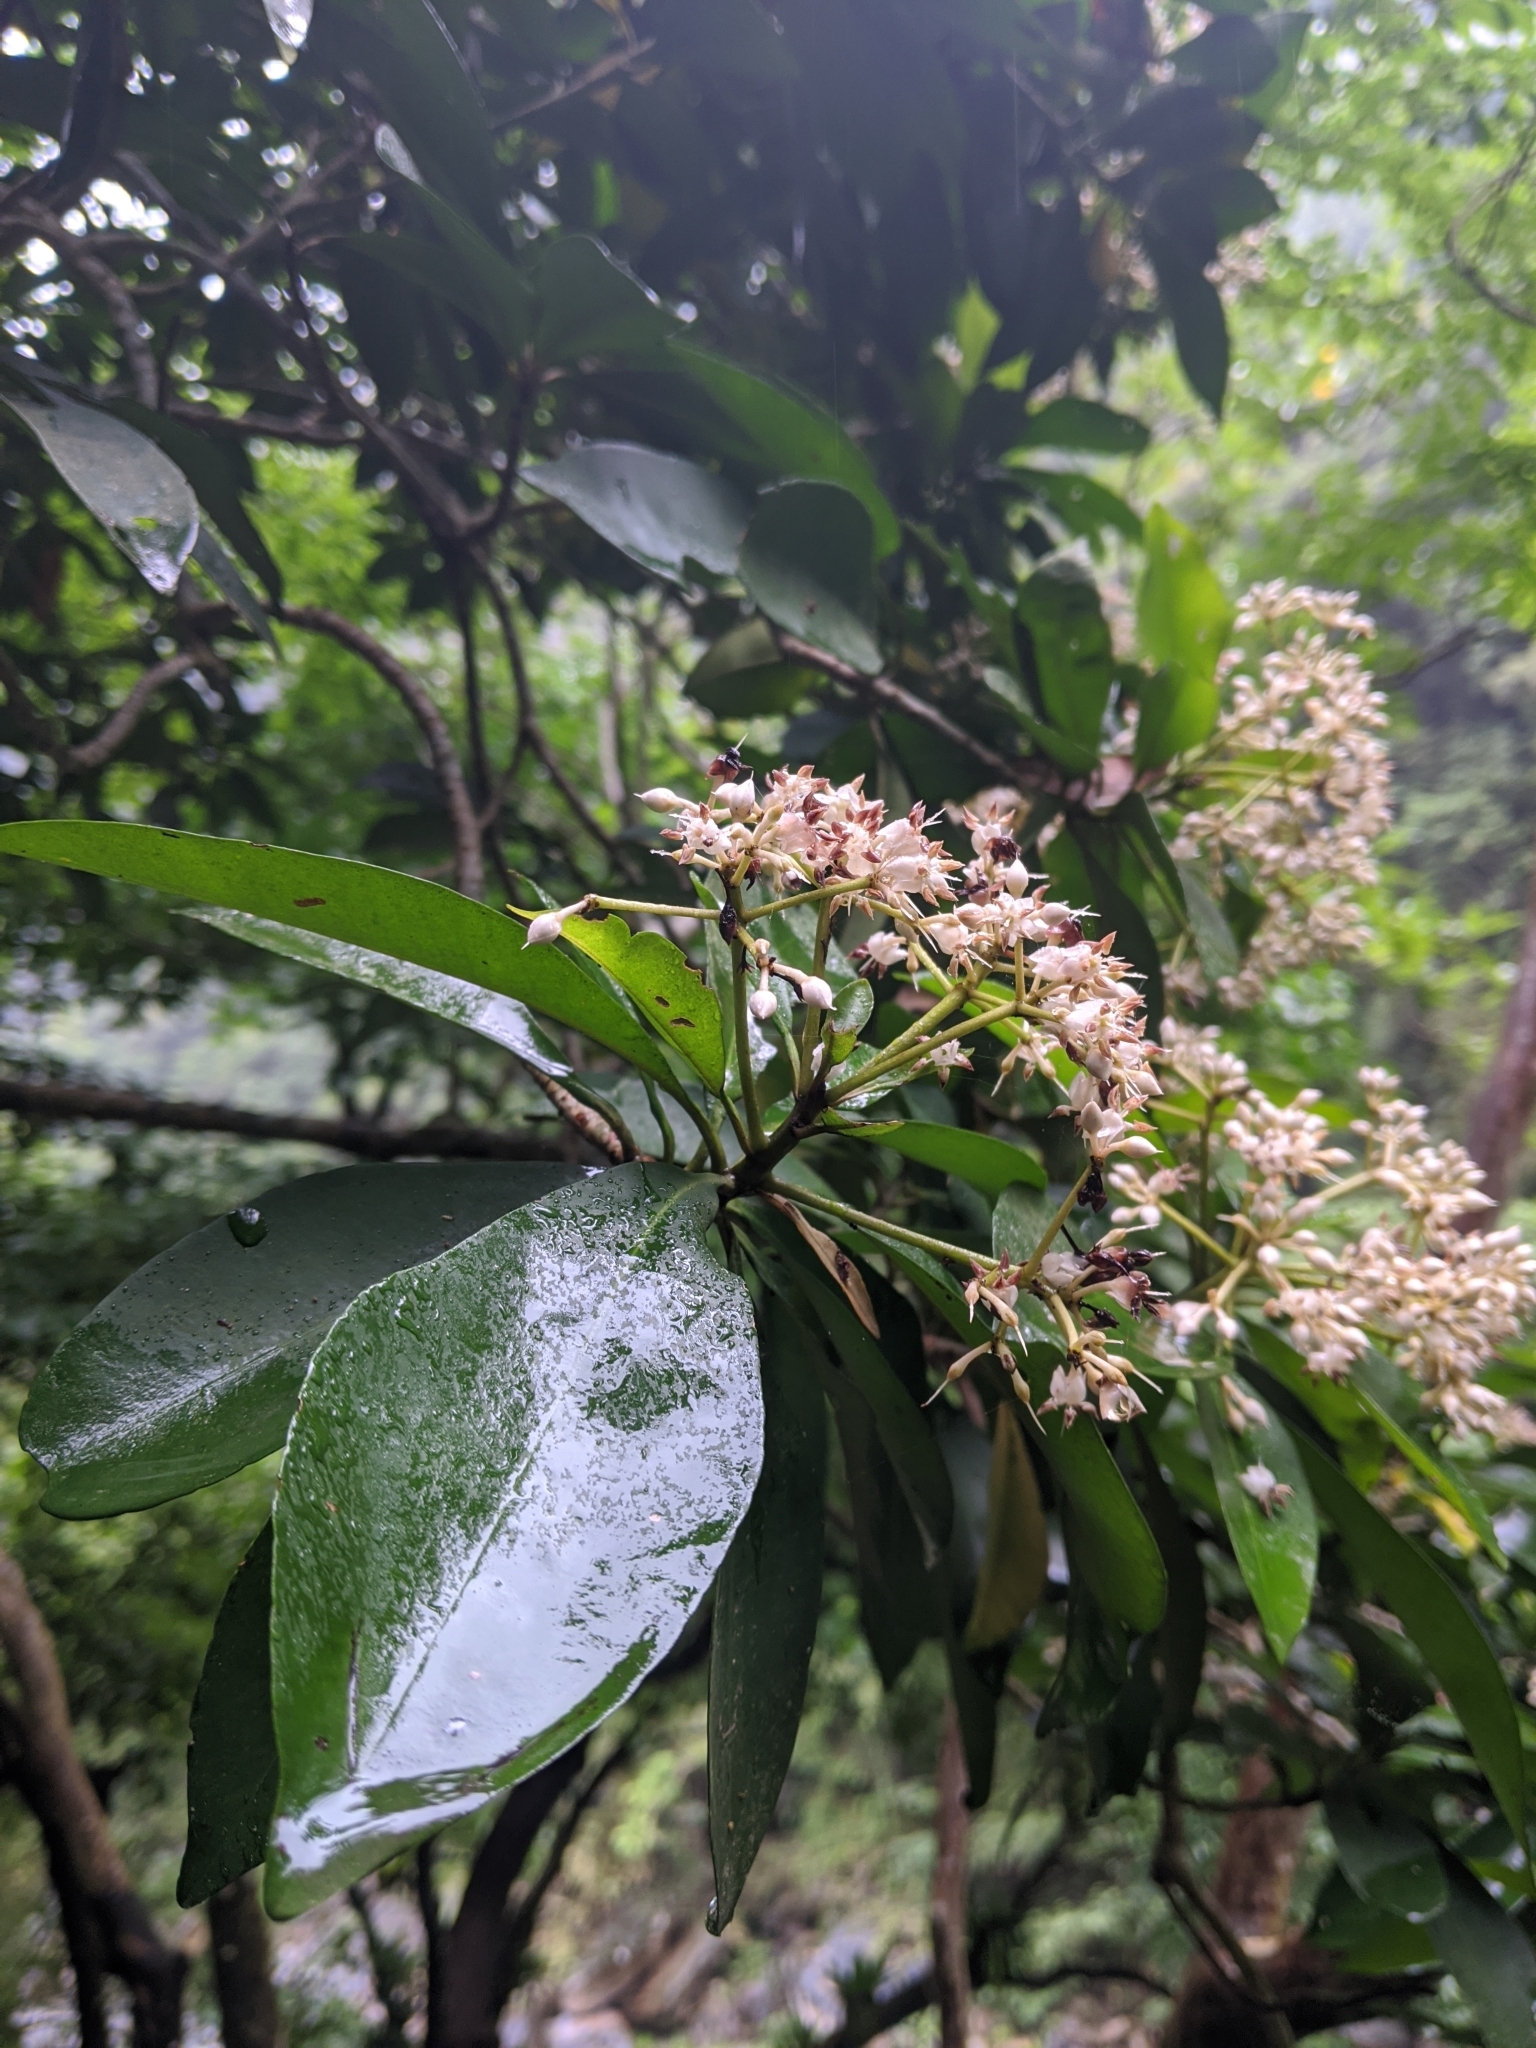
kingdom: Plantae
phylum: Tracheophyta
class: Magnoliopsida
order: Ericales
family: Primulaceae
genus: Ardisia
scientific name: Ardisia sieboldii
